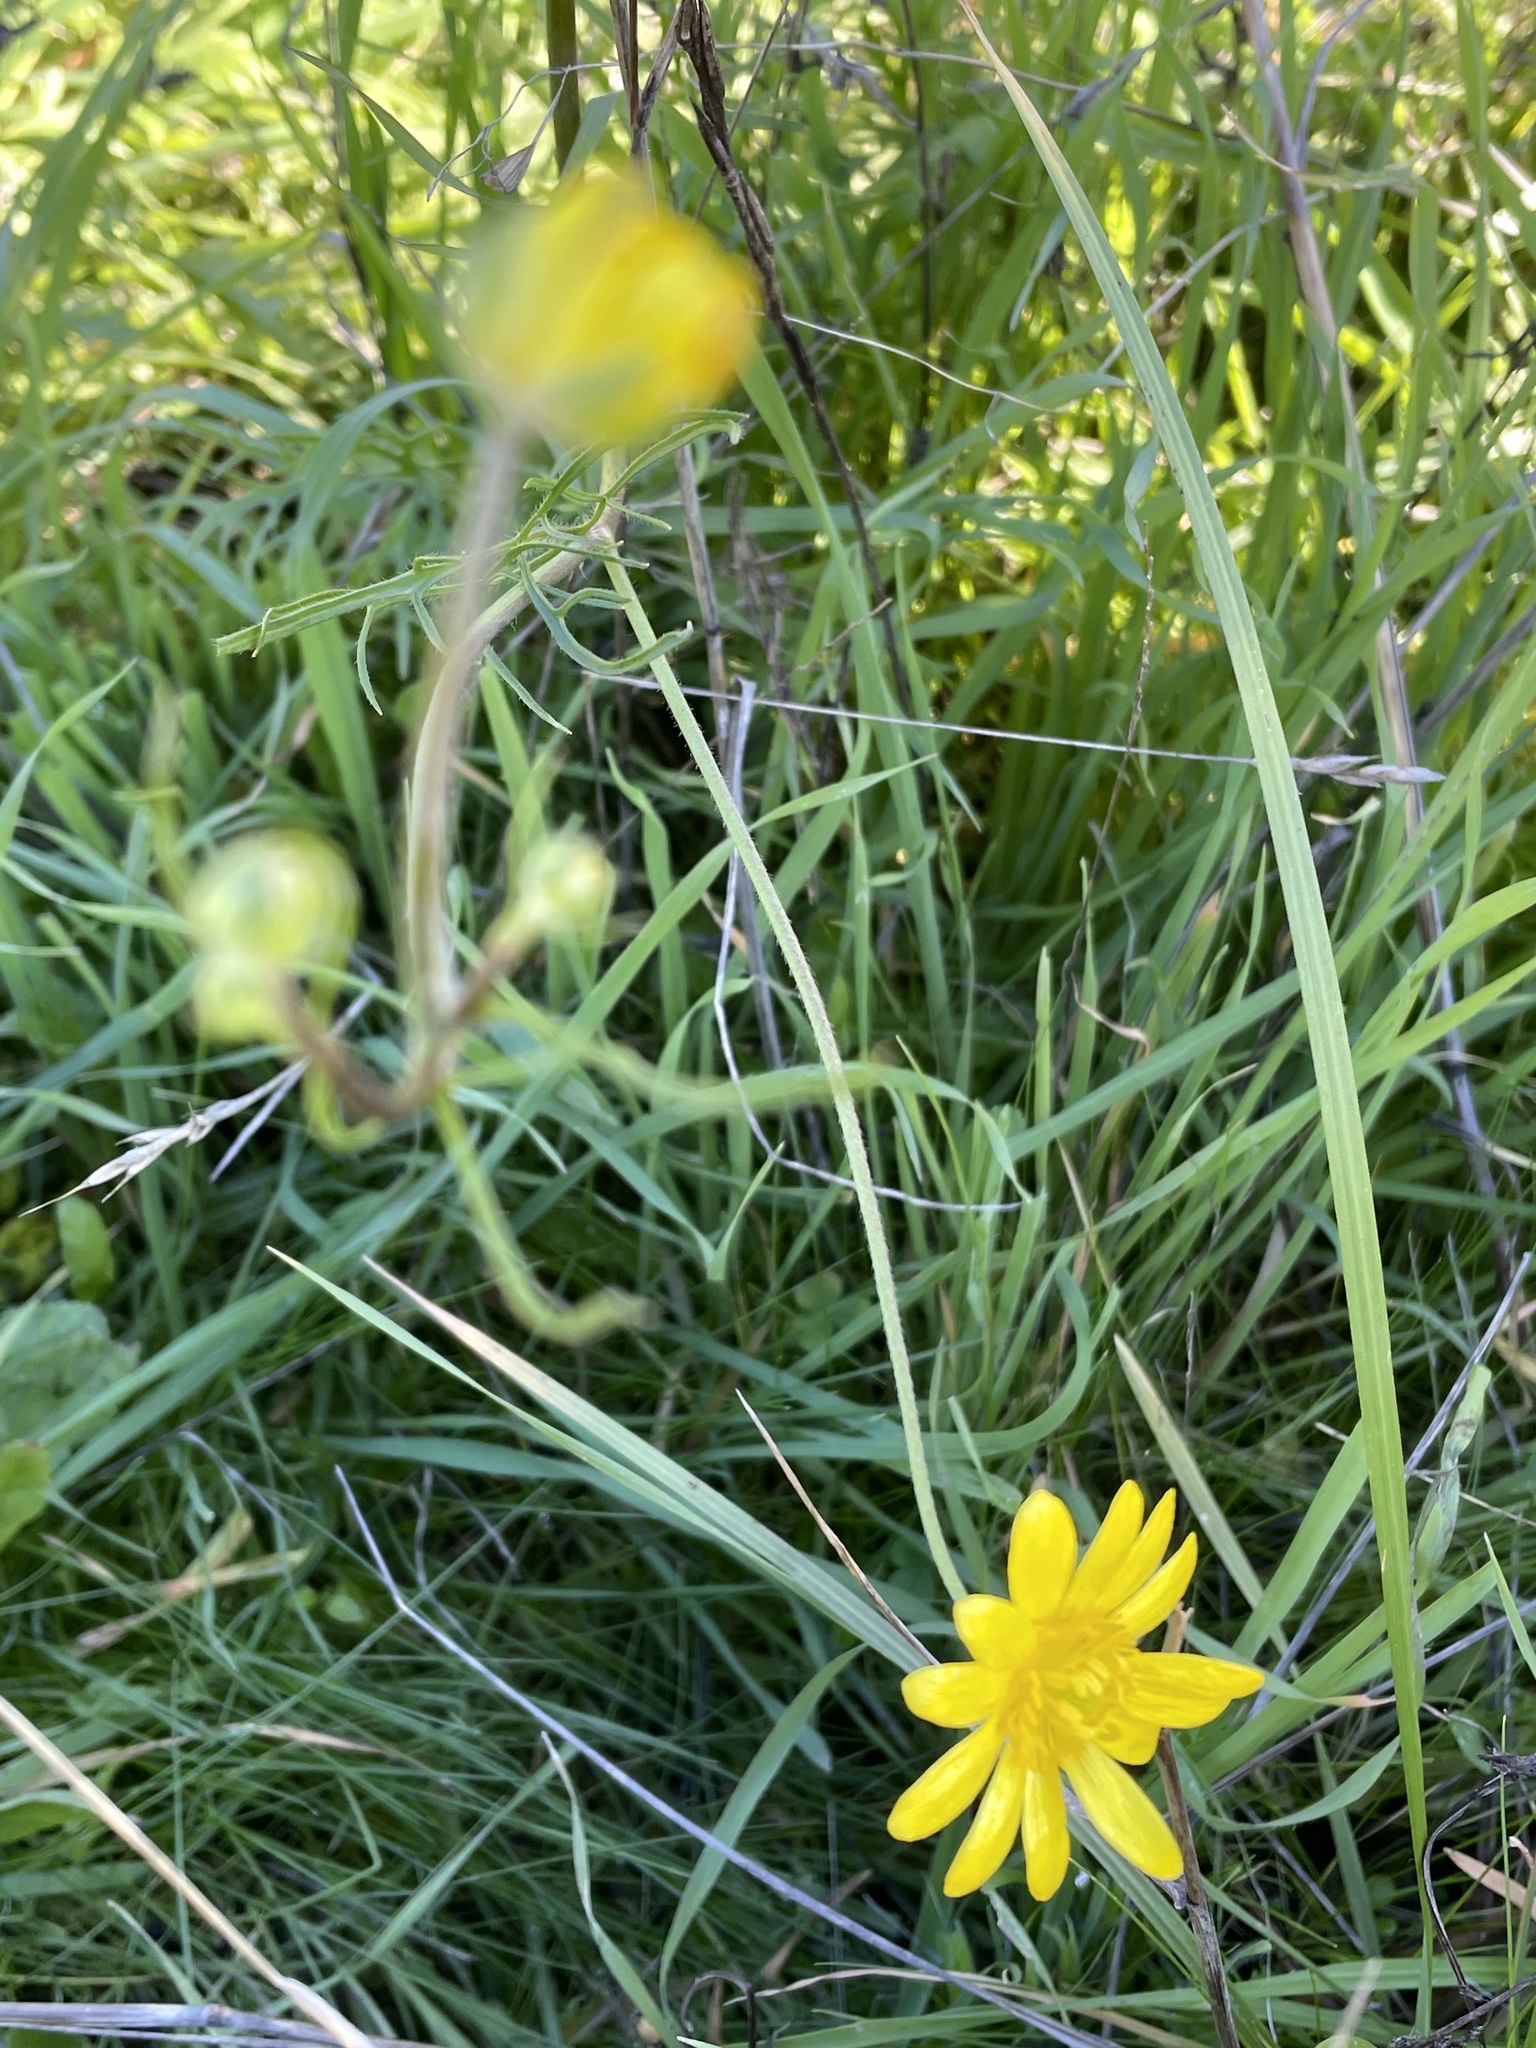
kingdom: Plantae
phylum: Tracheophyta
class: Magnoliopsida
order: Ranunculales
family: Ranunculaceae
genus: Ranunculus
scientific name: Ranunculus californicus
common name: California buttercup
